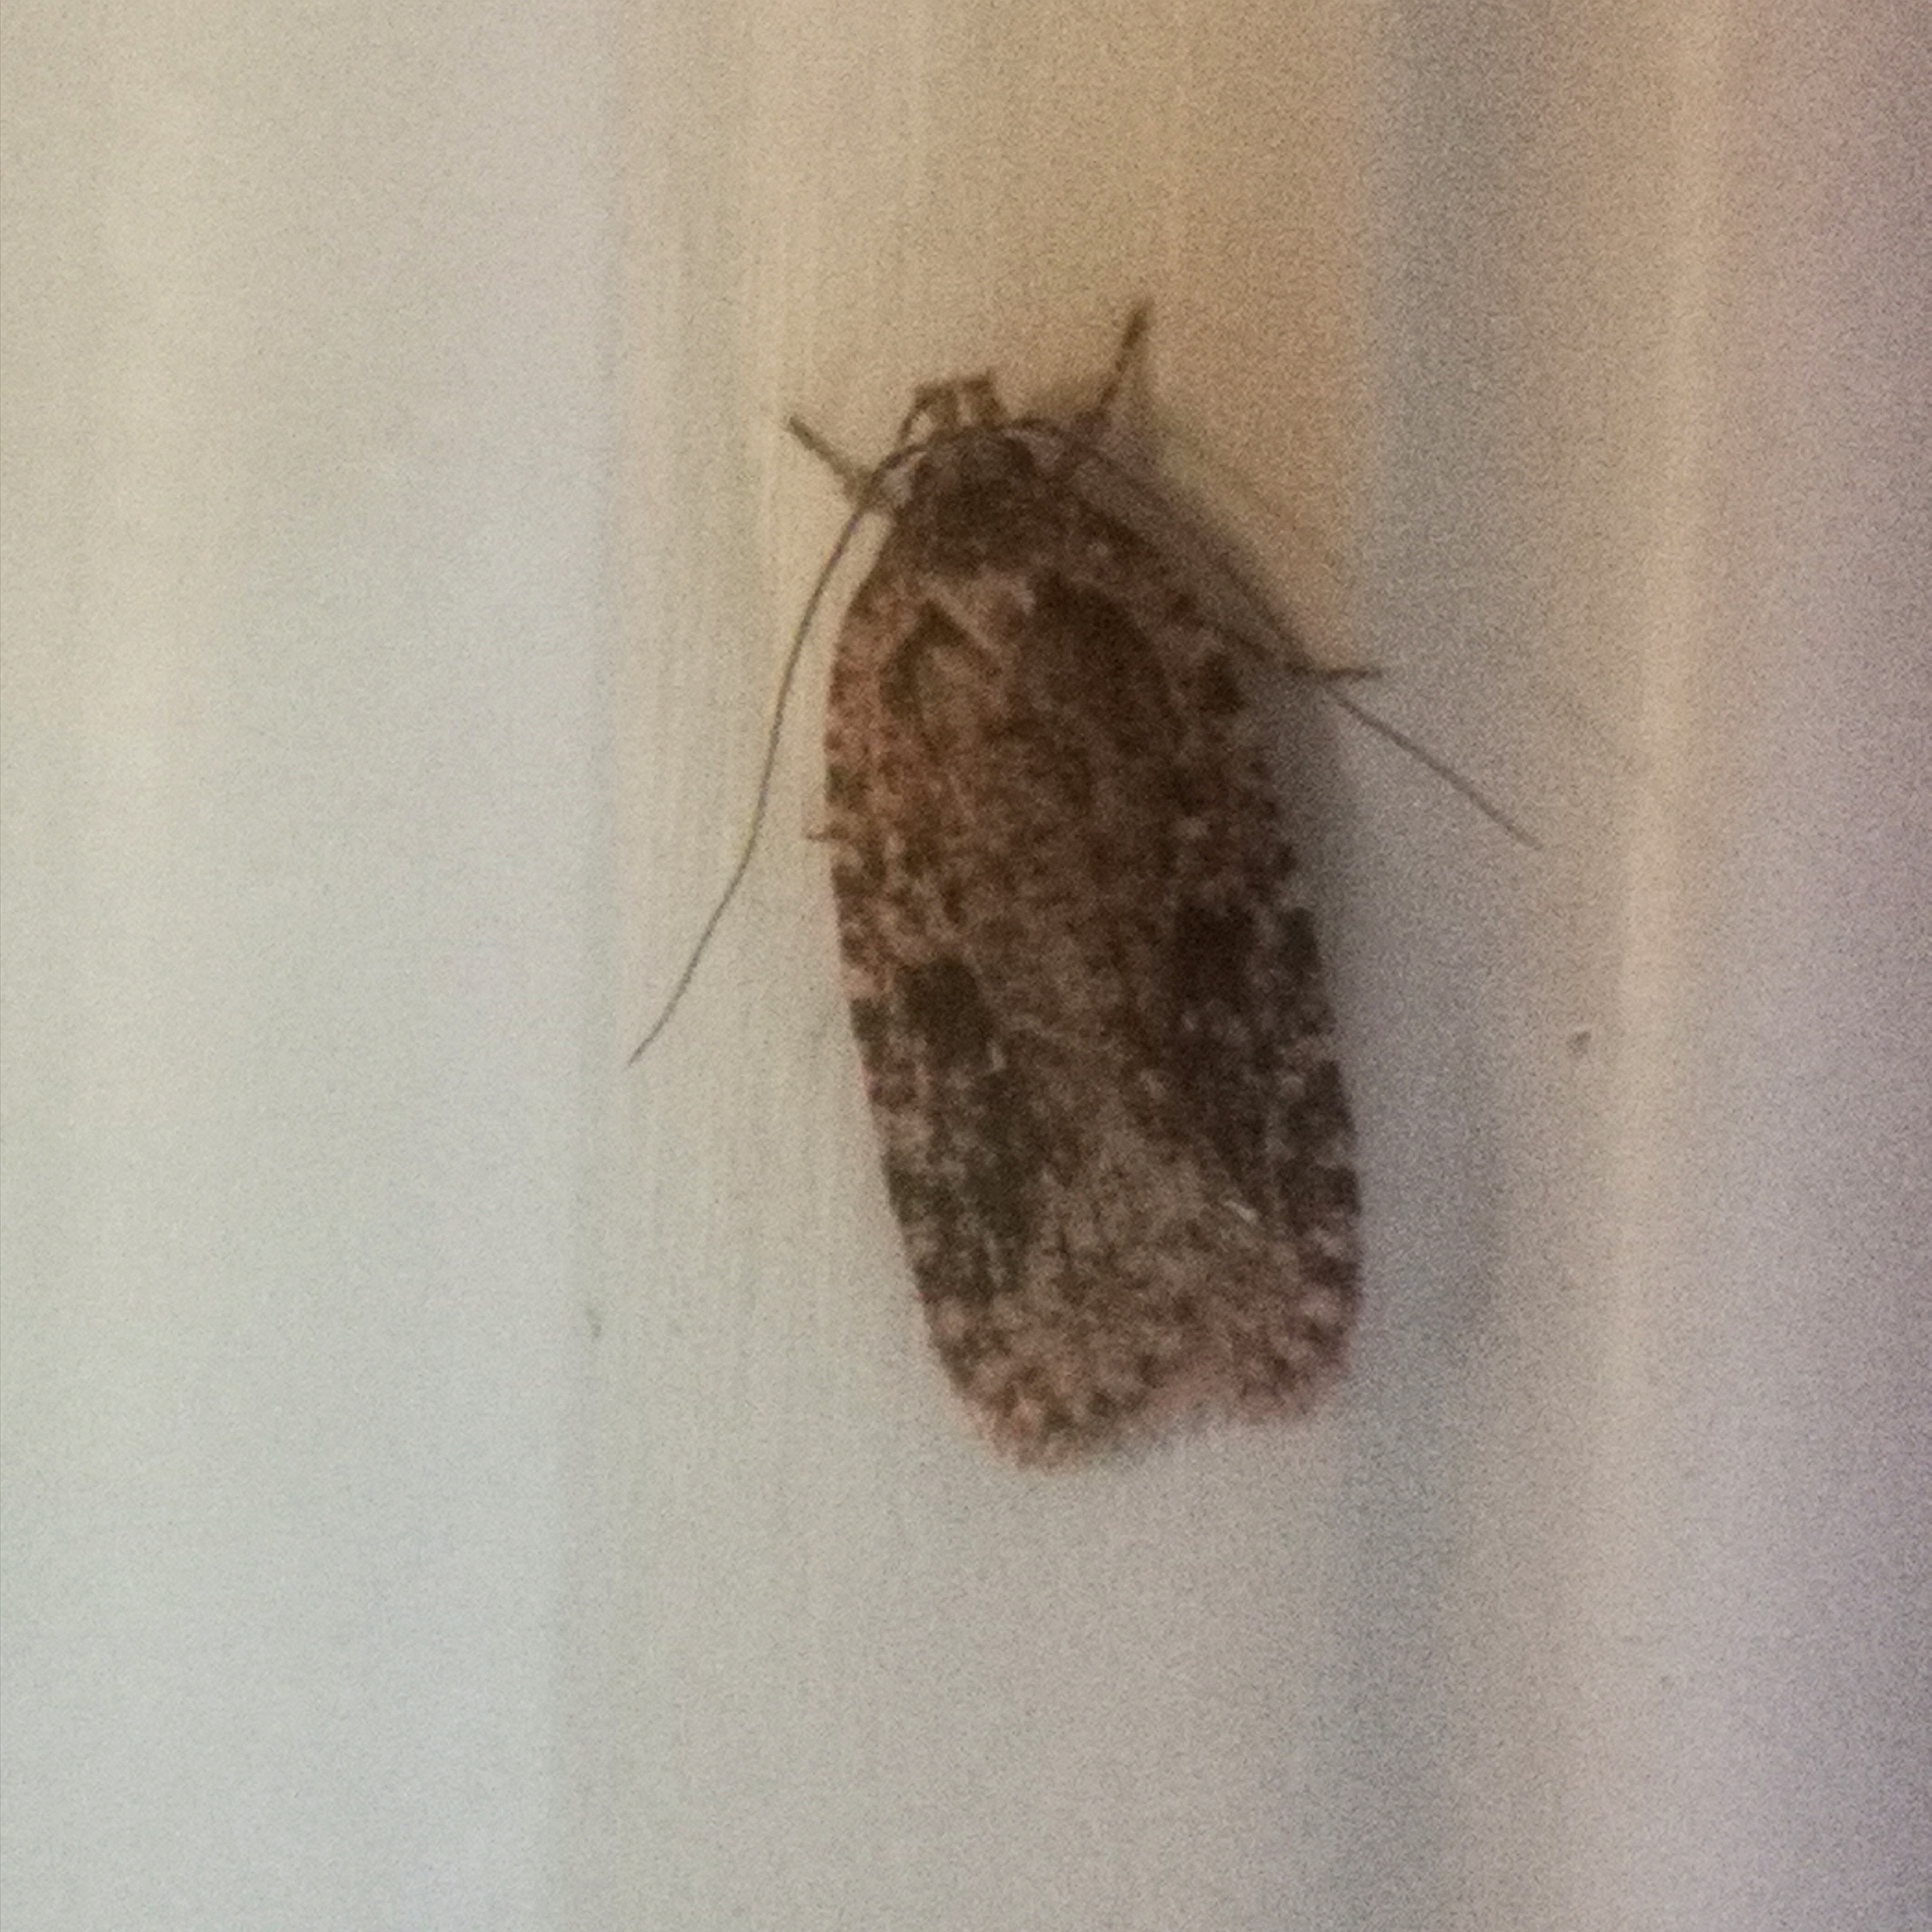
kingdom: Animalia
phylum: Arthropoda
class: Insecta
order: Lepidoptera
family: Depressariidae
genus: Agonopterix
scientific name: Agonopterix pulvipennella
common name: Goldenrod leafffolder
